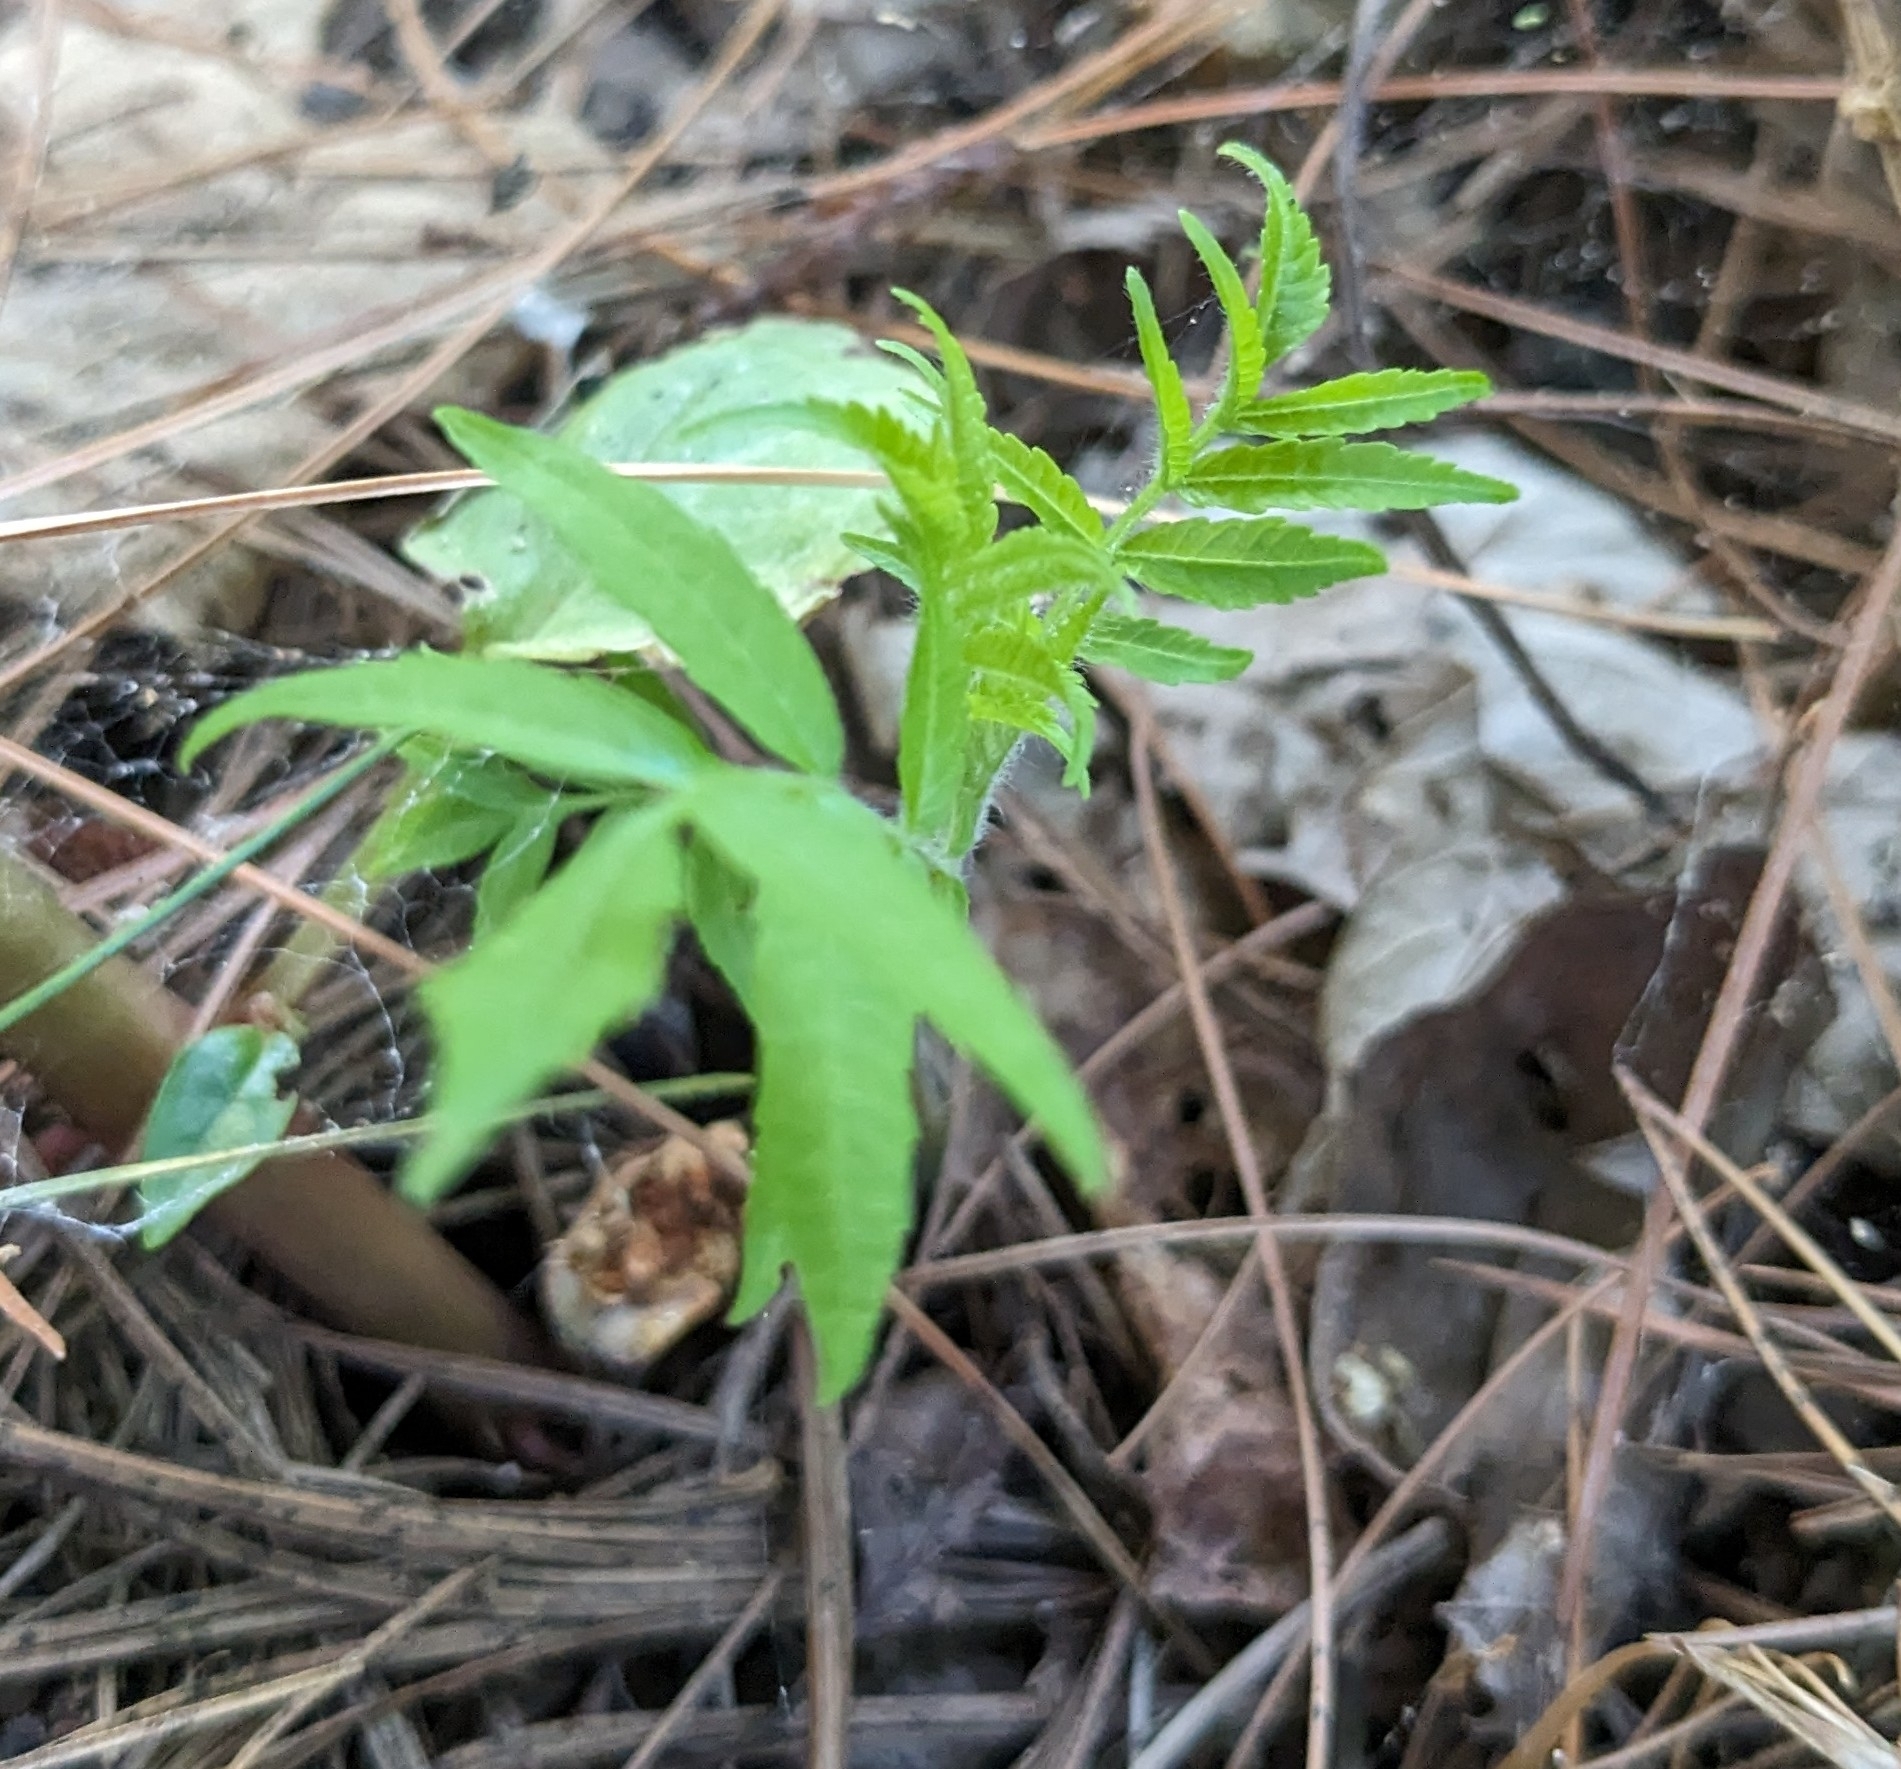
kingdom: Plantae
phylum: Tracheophyta
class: Magnoliopsida
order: Sapindales
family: Anacardiaceae
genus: Rhus
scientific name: Rhus typhina
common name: Staghorn sumac
